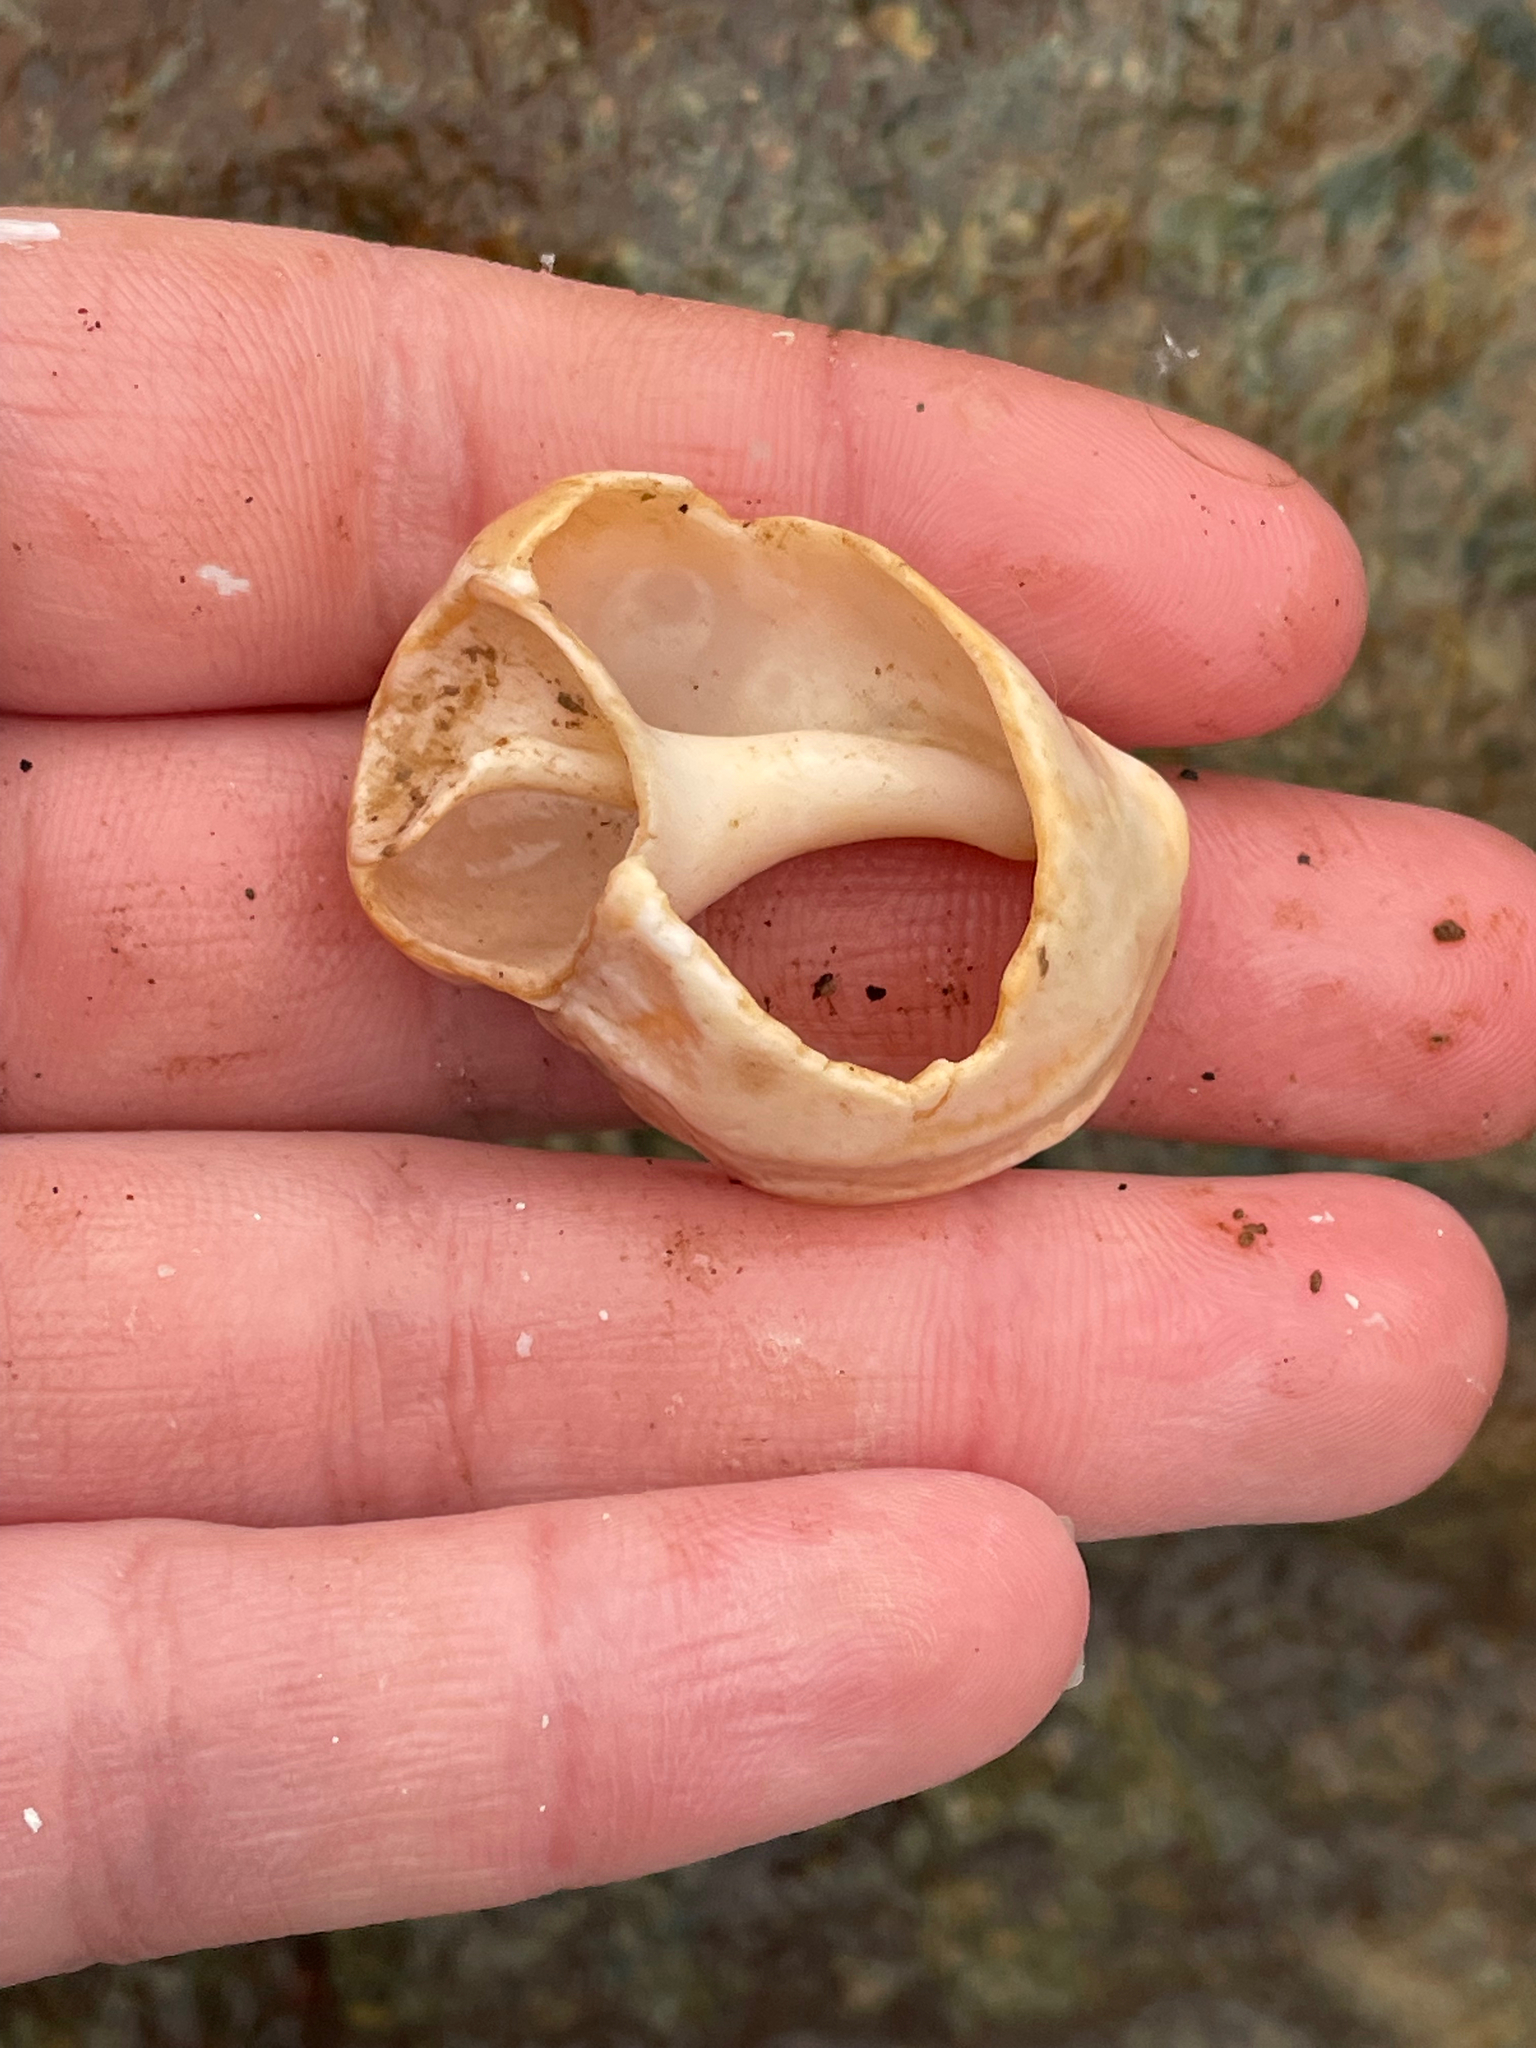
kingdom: Animalia
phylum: Mollusca
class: Gastropoda
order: Neogastropoda
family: Buccinidae
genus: Buccinum
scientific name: Buccinum undatum
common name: Common whelk
